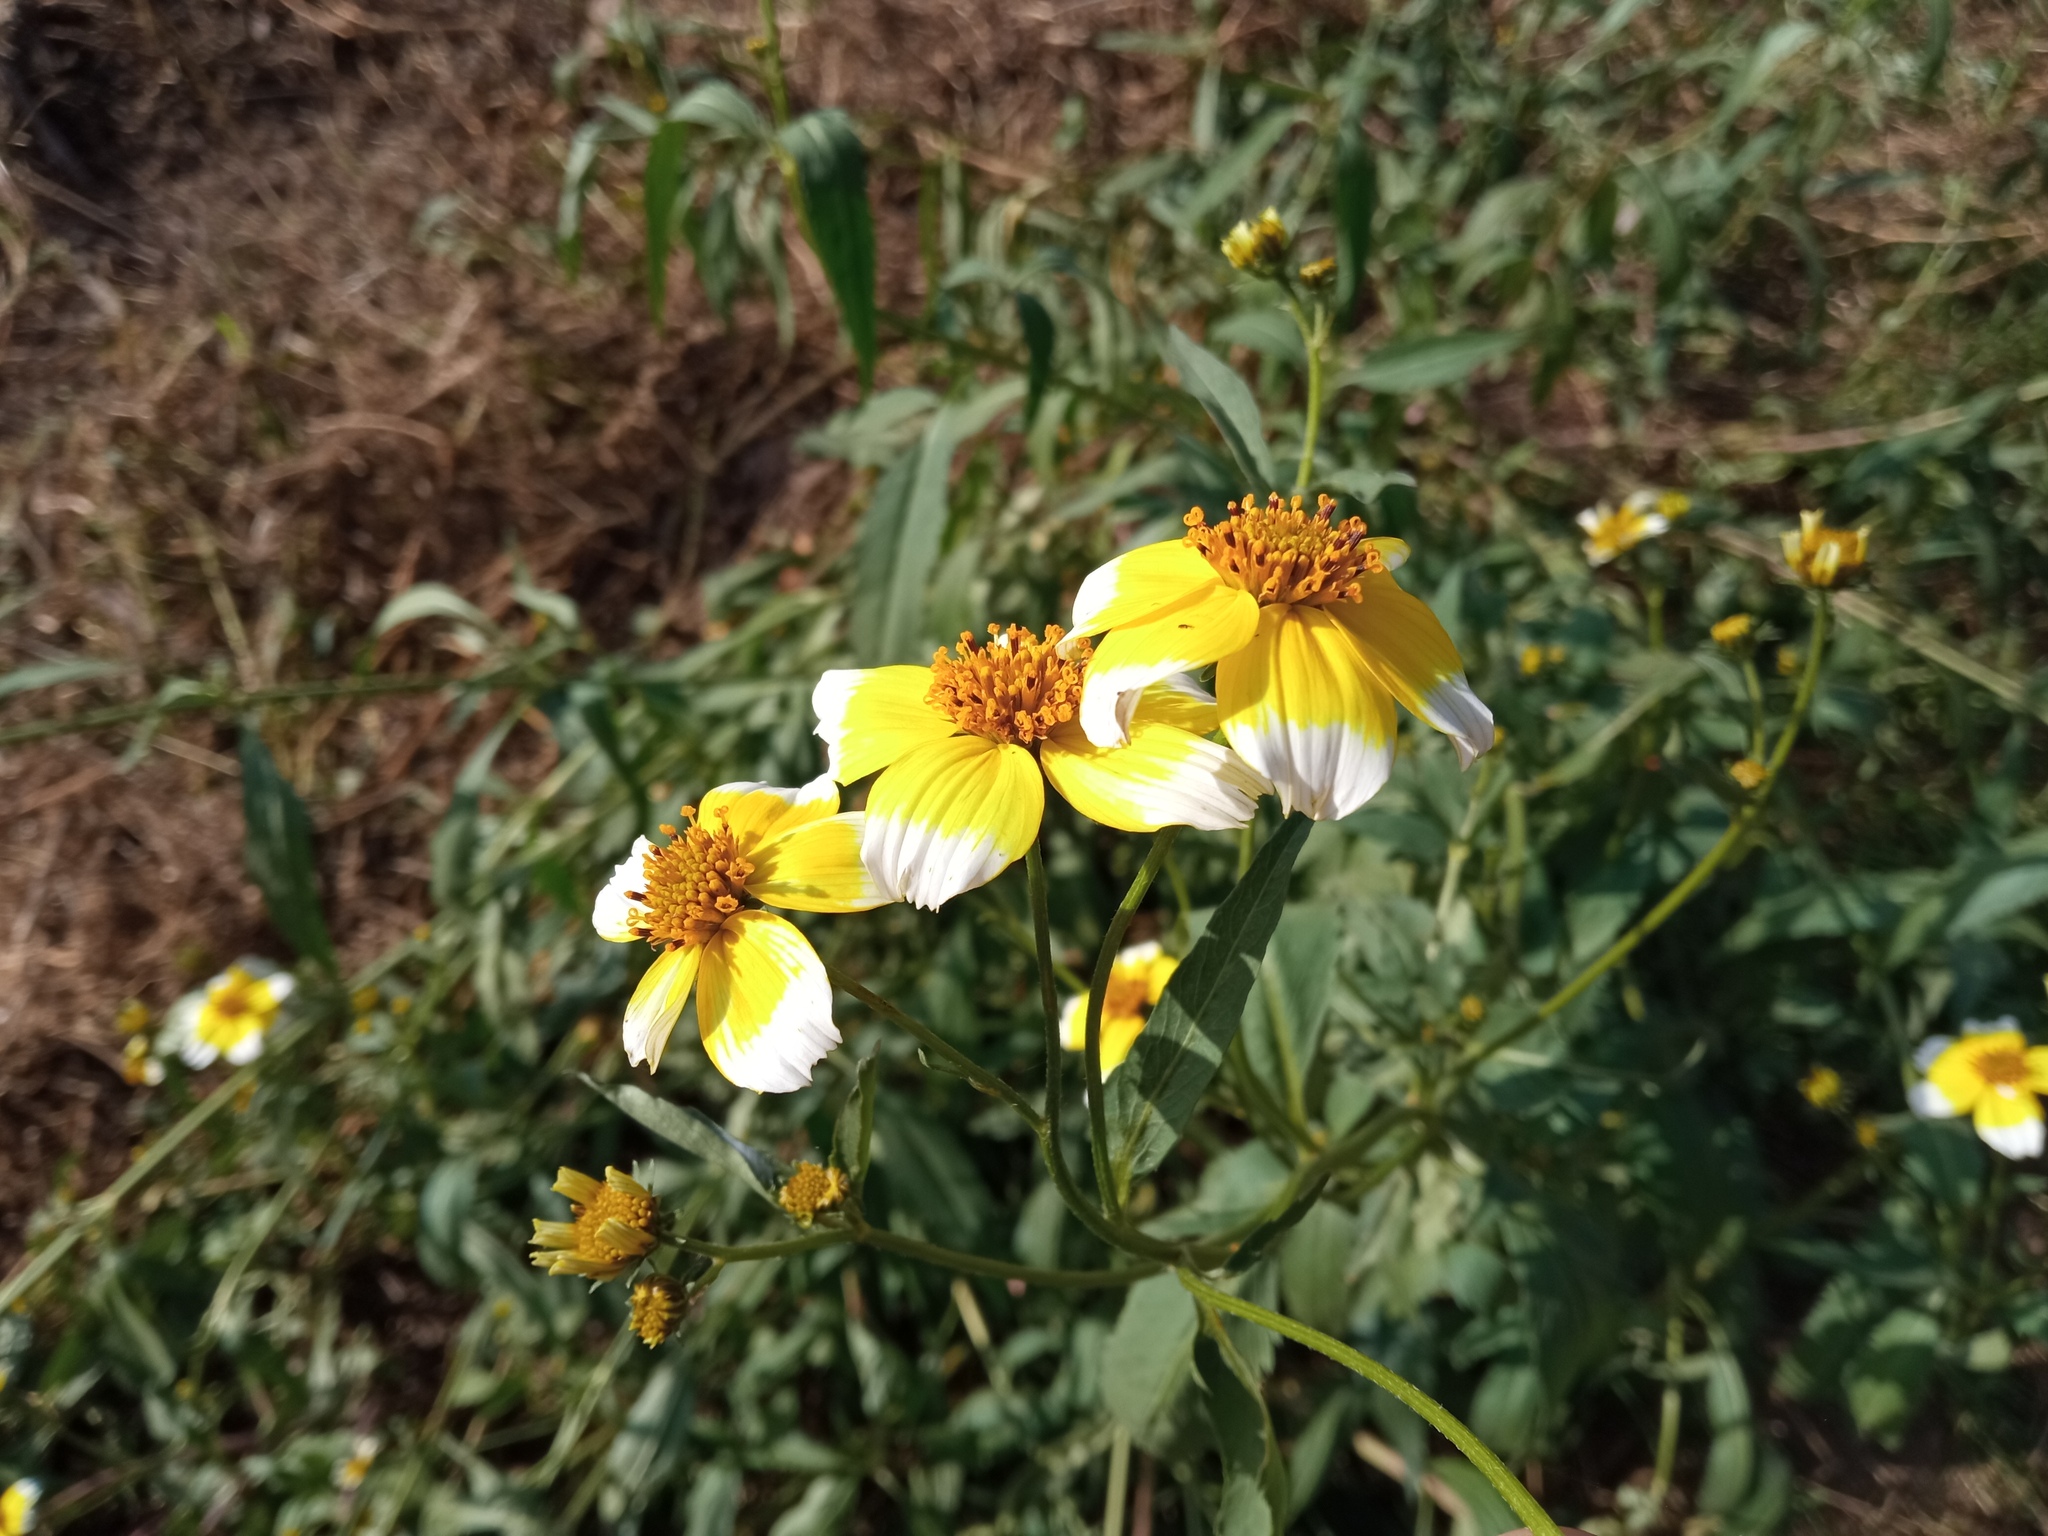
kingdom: Plantae
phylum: Tracheophyta
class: Magnoliopsida
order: Asterales
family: Asteraceae
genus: Bidens
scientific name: Bidens aurea
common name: Arizona beggar-ticks
